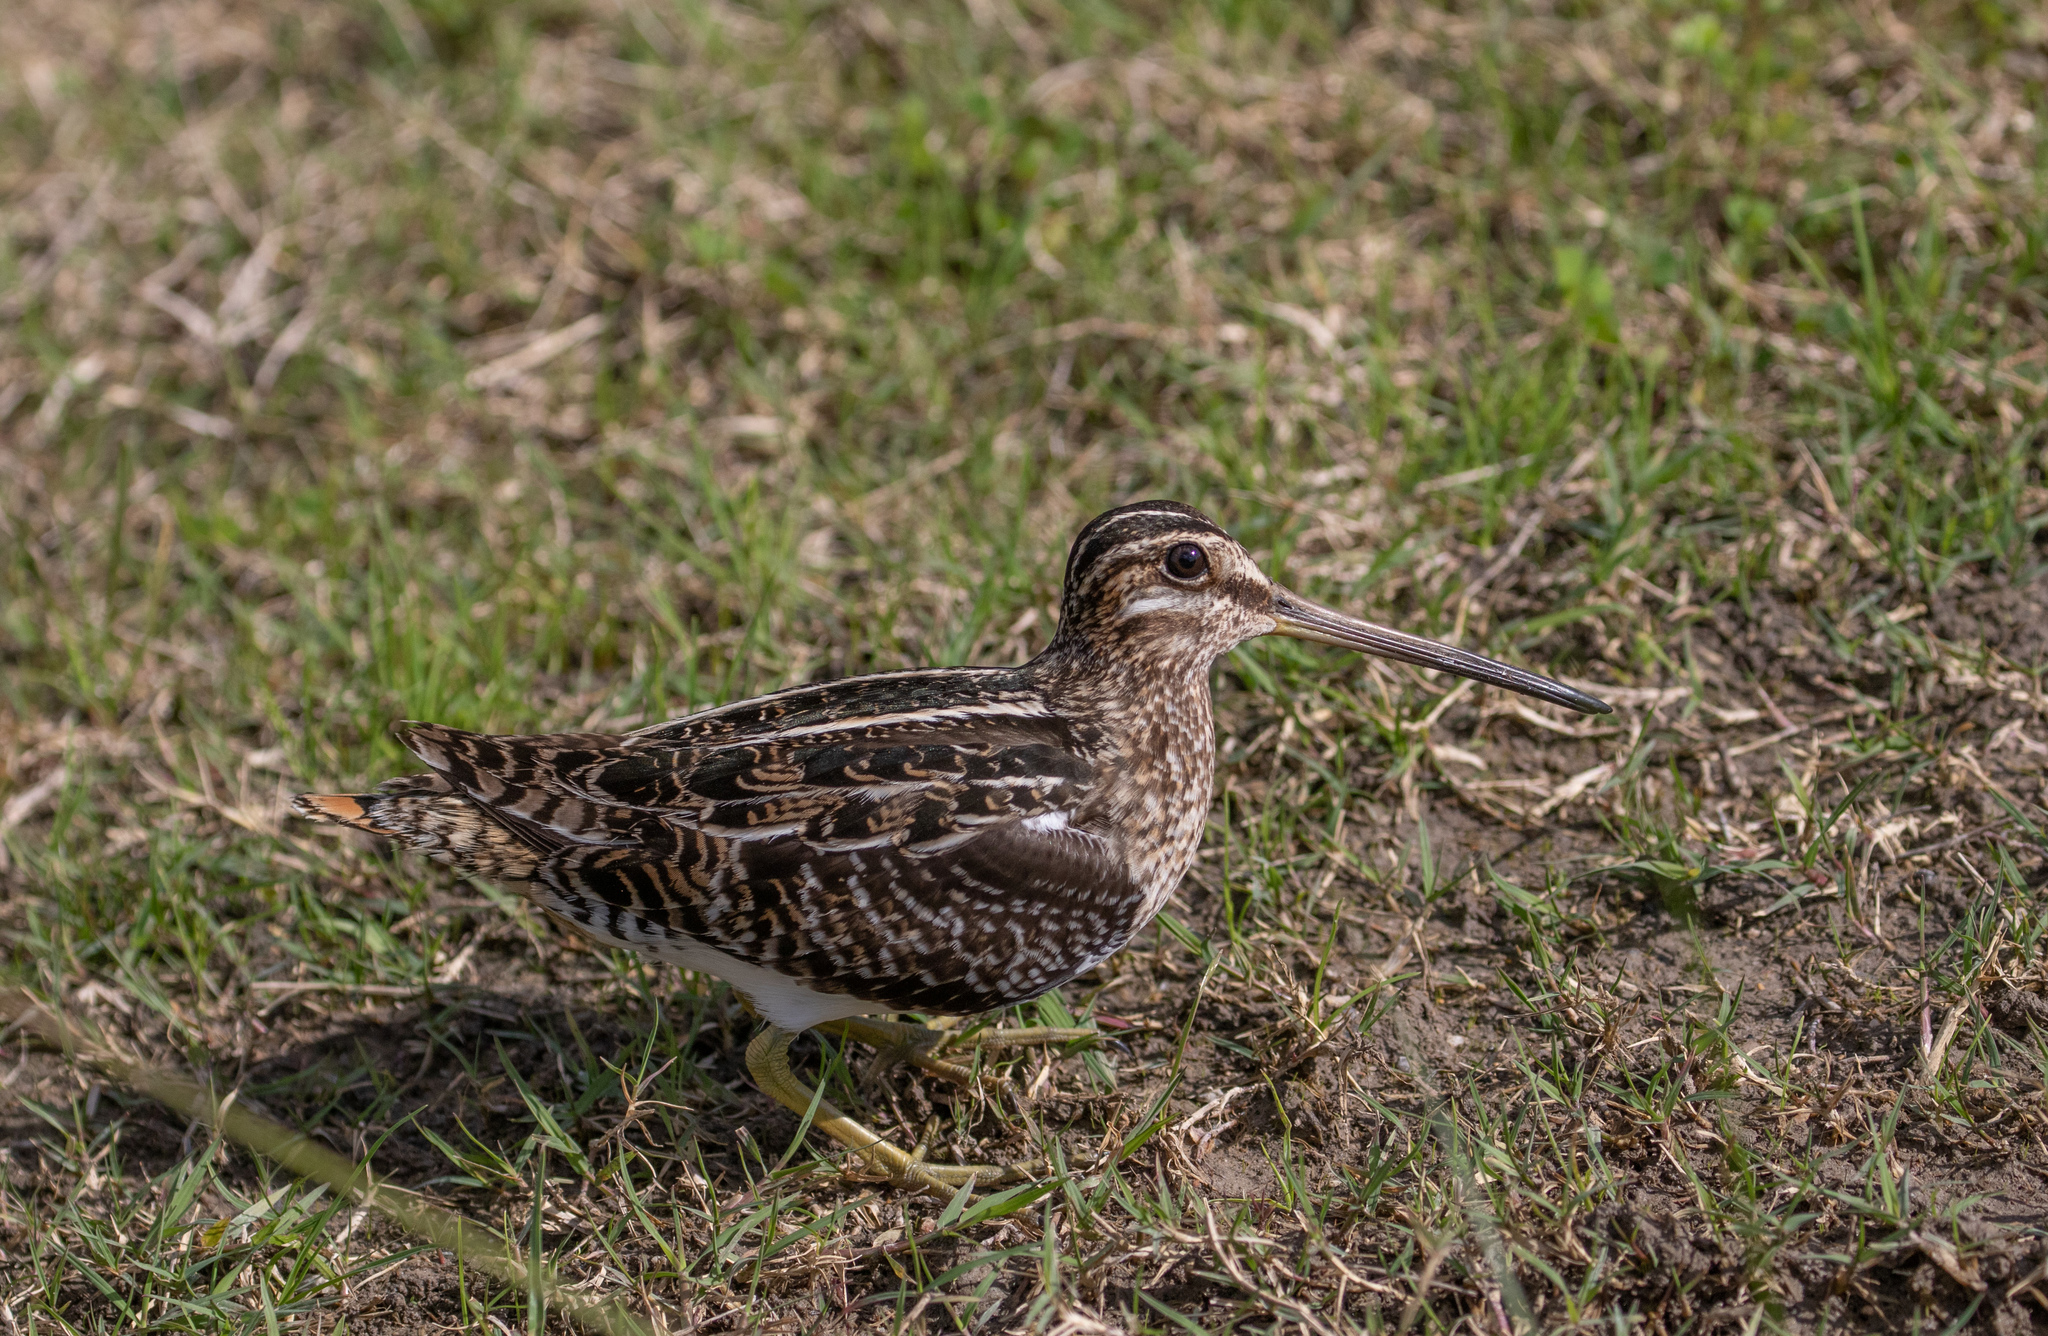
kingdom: Animalia
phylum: Chordata
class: Aves
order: Charadriiformes
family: Scolopacidae
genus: Gallinago
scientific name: Gallinago delicata
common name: Wilson's snipe
